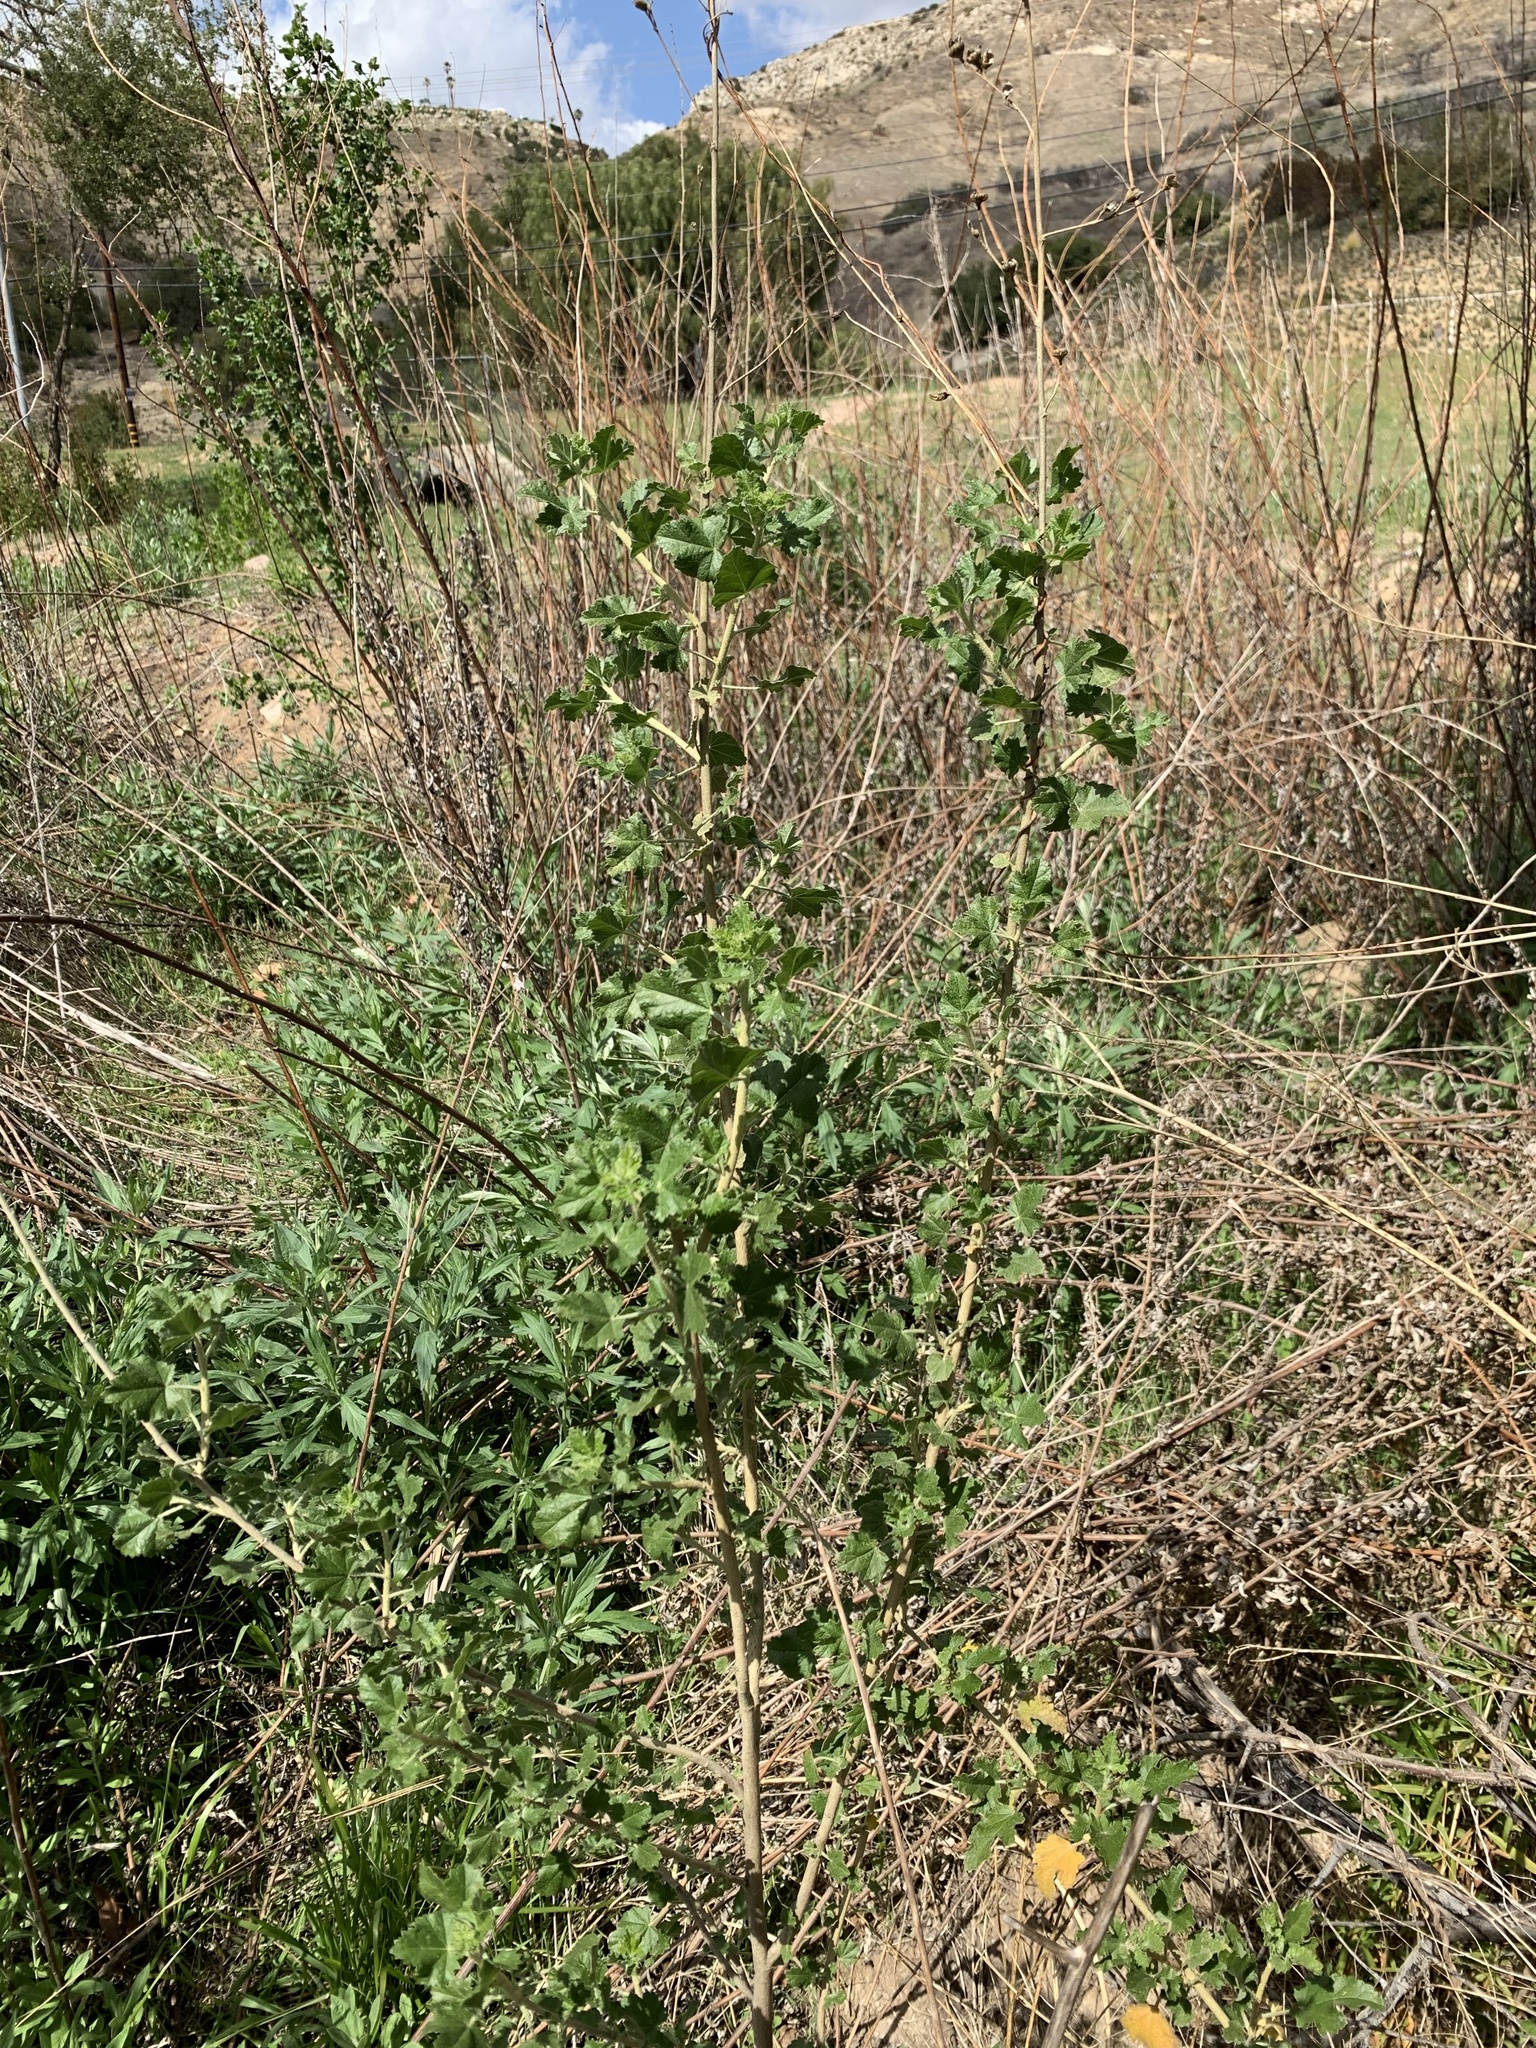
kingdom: Plantae
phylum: Tracheophyta
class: Magnoliopsida
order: Malvales
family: Malvaceae
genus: Malacothamnus
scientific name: Malacothamnus fasciculatus
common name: Sant cruz island bush-mallow
